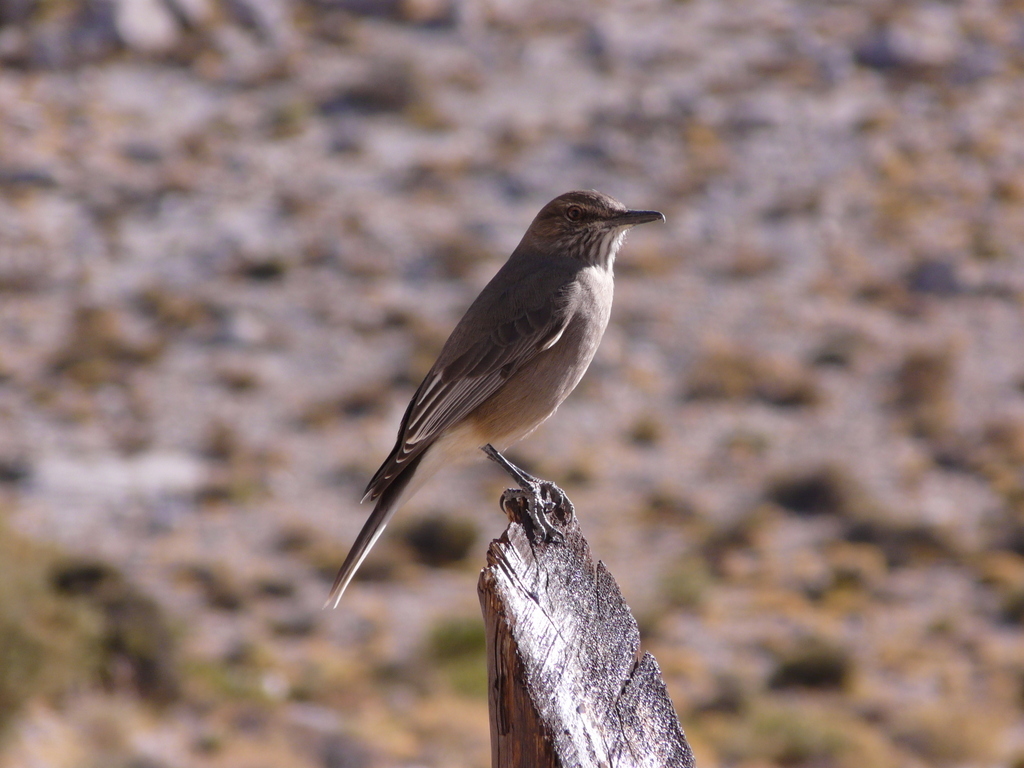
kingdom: Animalia
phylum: Chordata
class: Aves
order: Passeriformes
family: Tyrannidae
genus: Agriornis
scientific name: Agriornis montanus
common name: Black-billed shrike-tyrant
